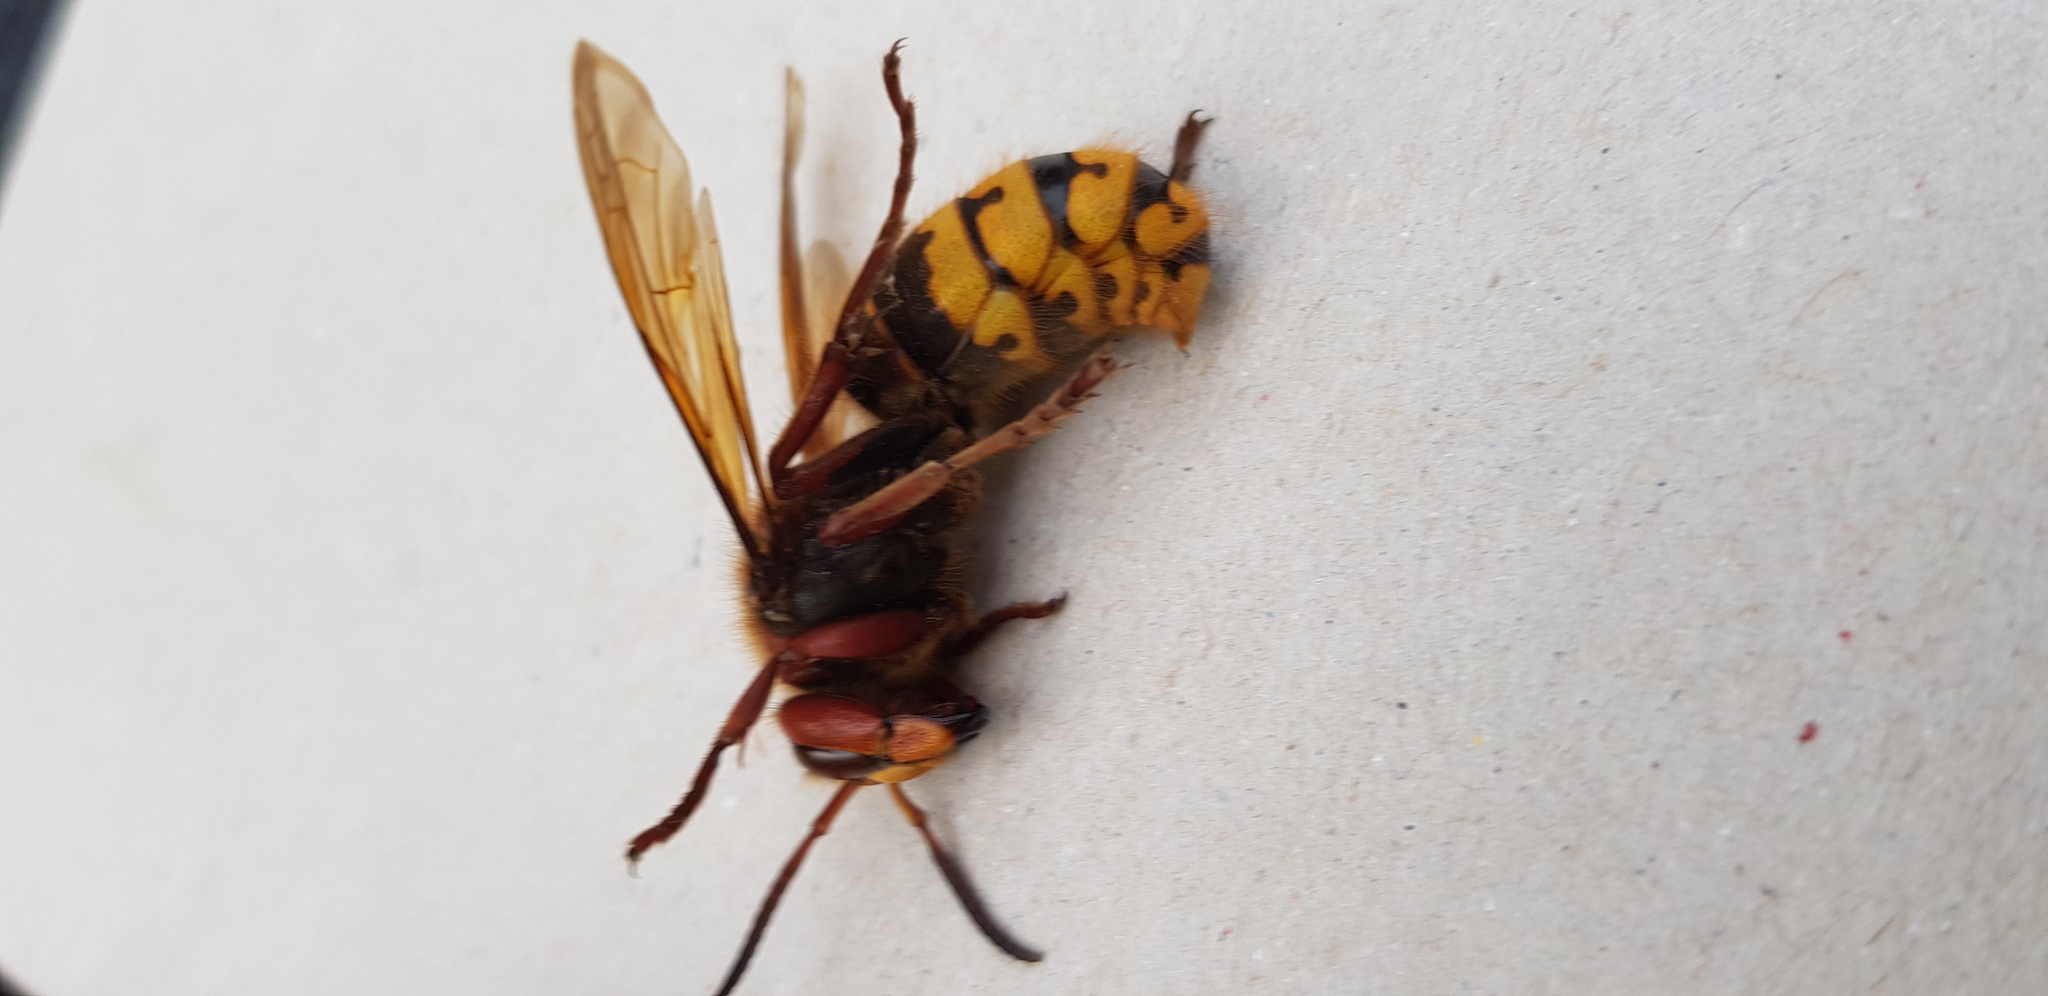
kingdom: Animalia
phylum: Arthropoda
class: Insecta
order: Hymenoptera
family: Vespidae
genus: Vespa
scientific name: Vespa crabro
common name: Hornet
